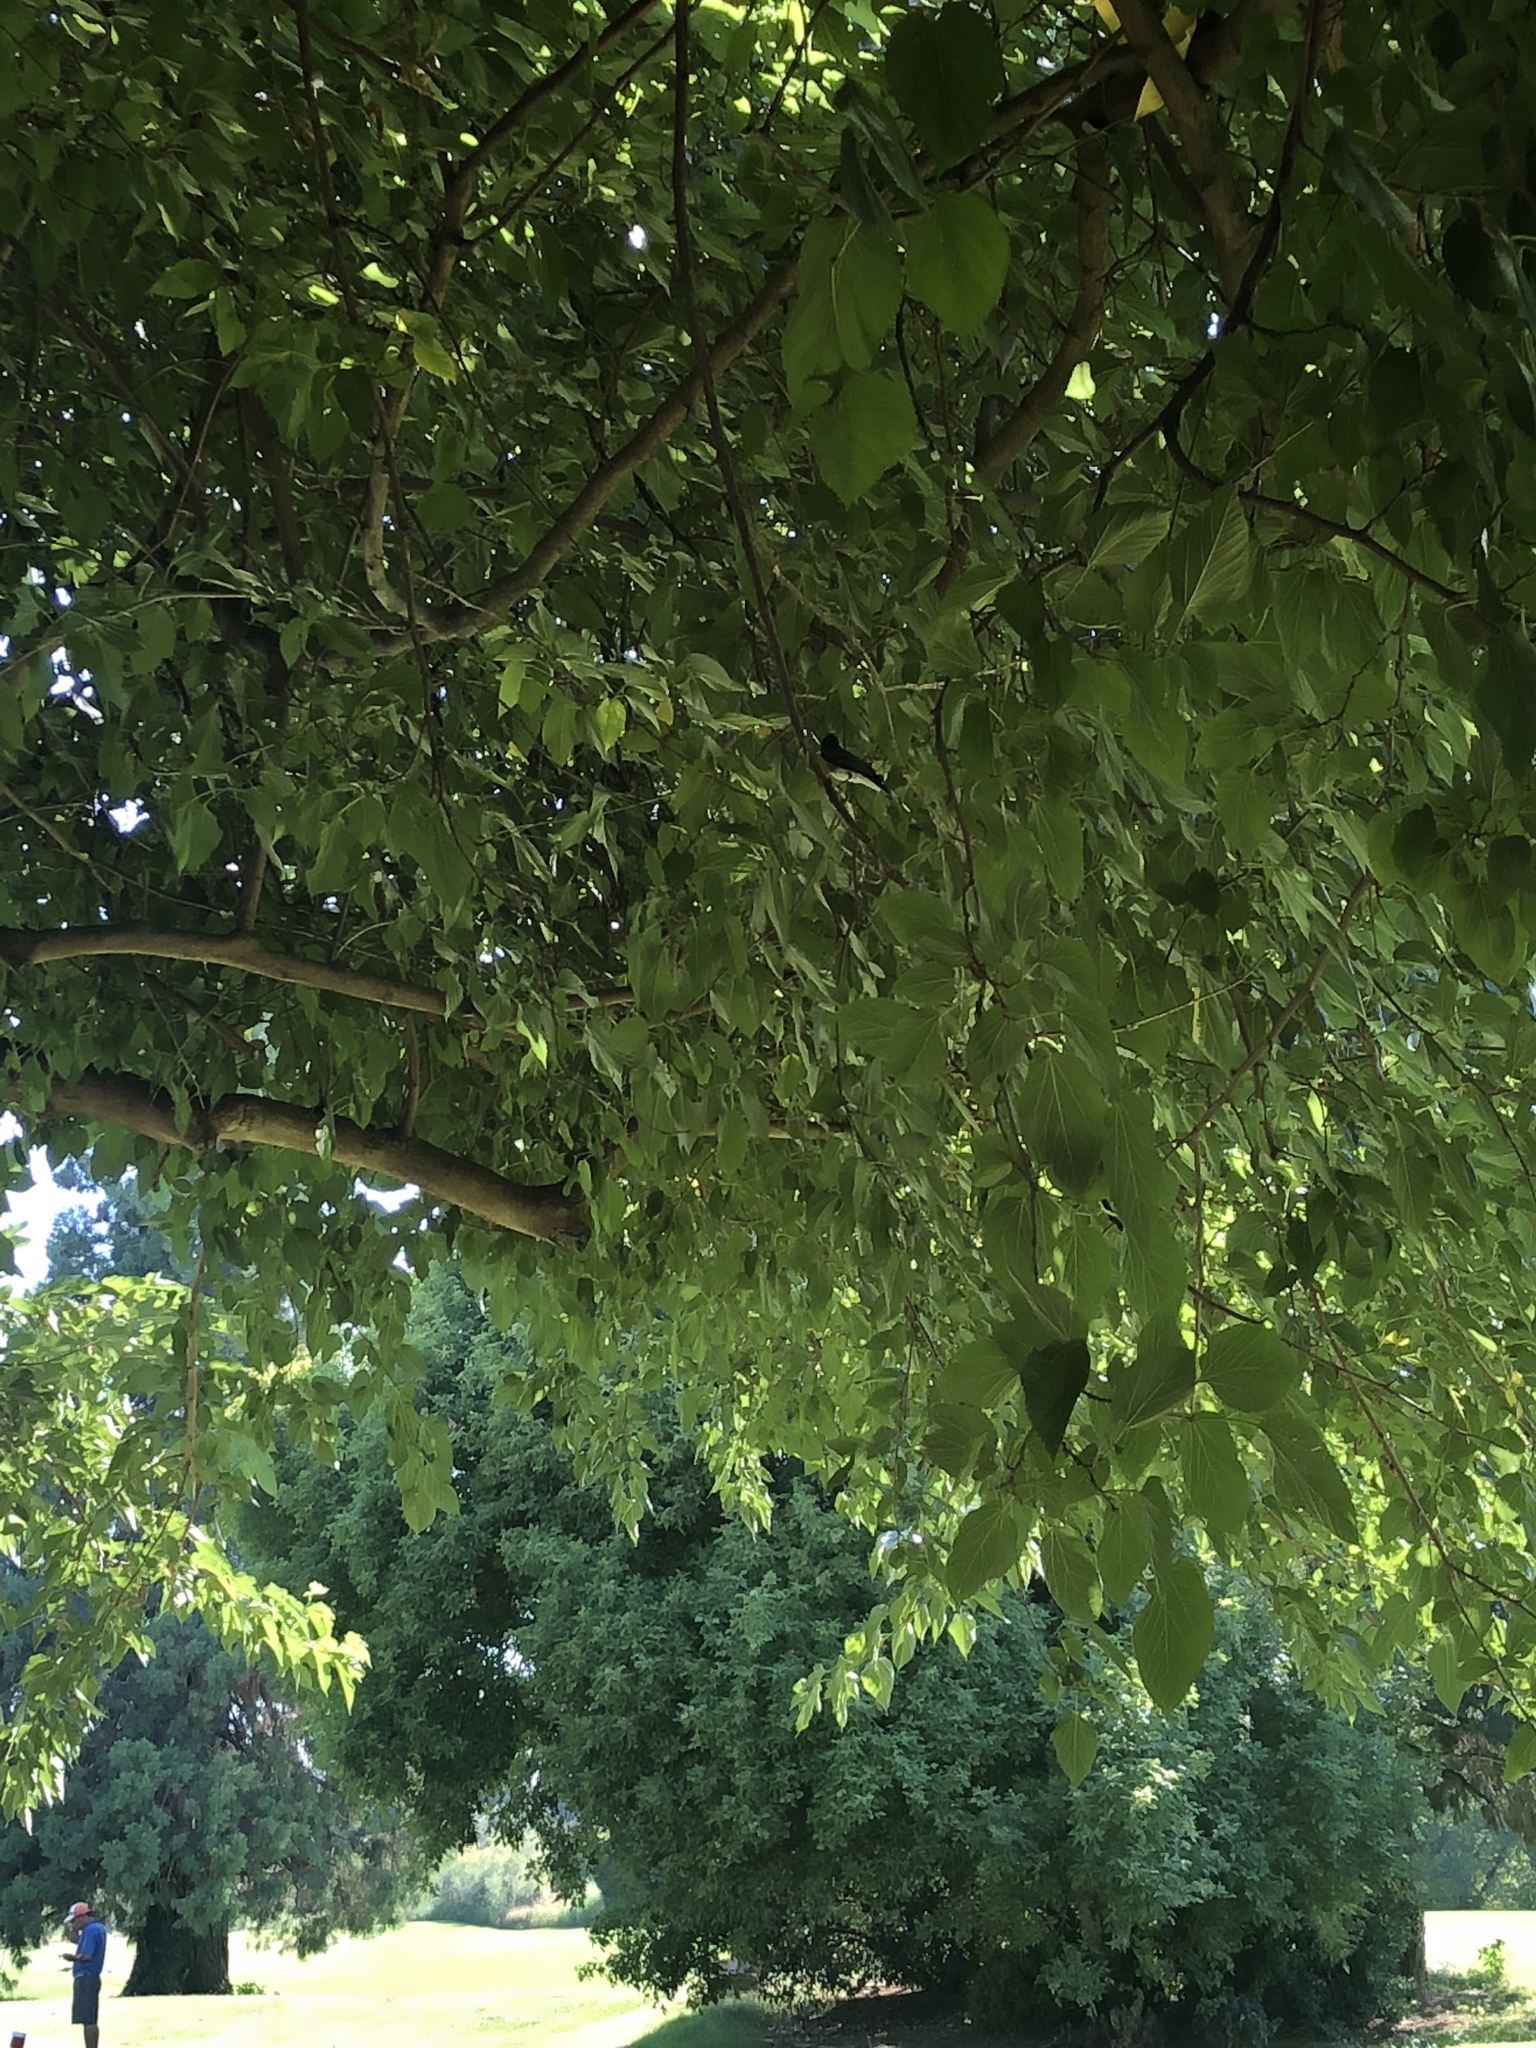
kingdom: Animalia
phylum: Chordata
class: Aves
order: Passeriformes
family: Tyrannidae
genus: Sayornis
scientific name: Sayornis nigricans
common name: Black phoebe
